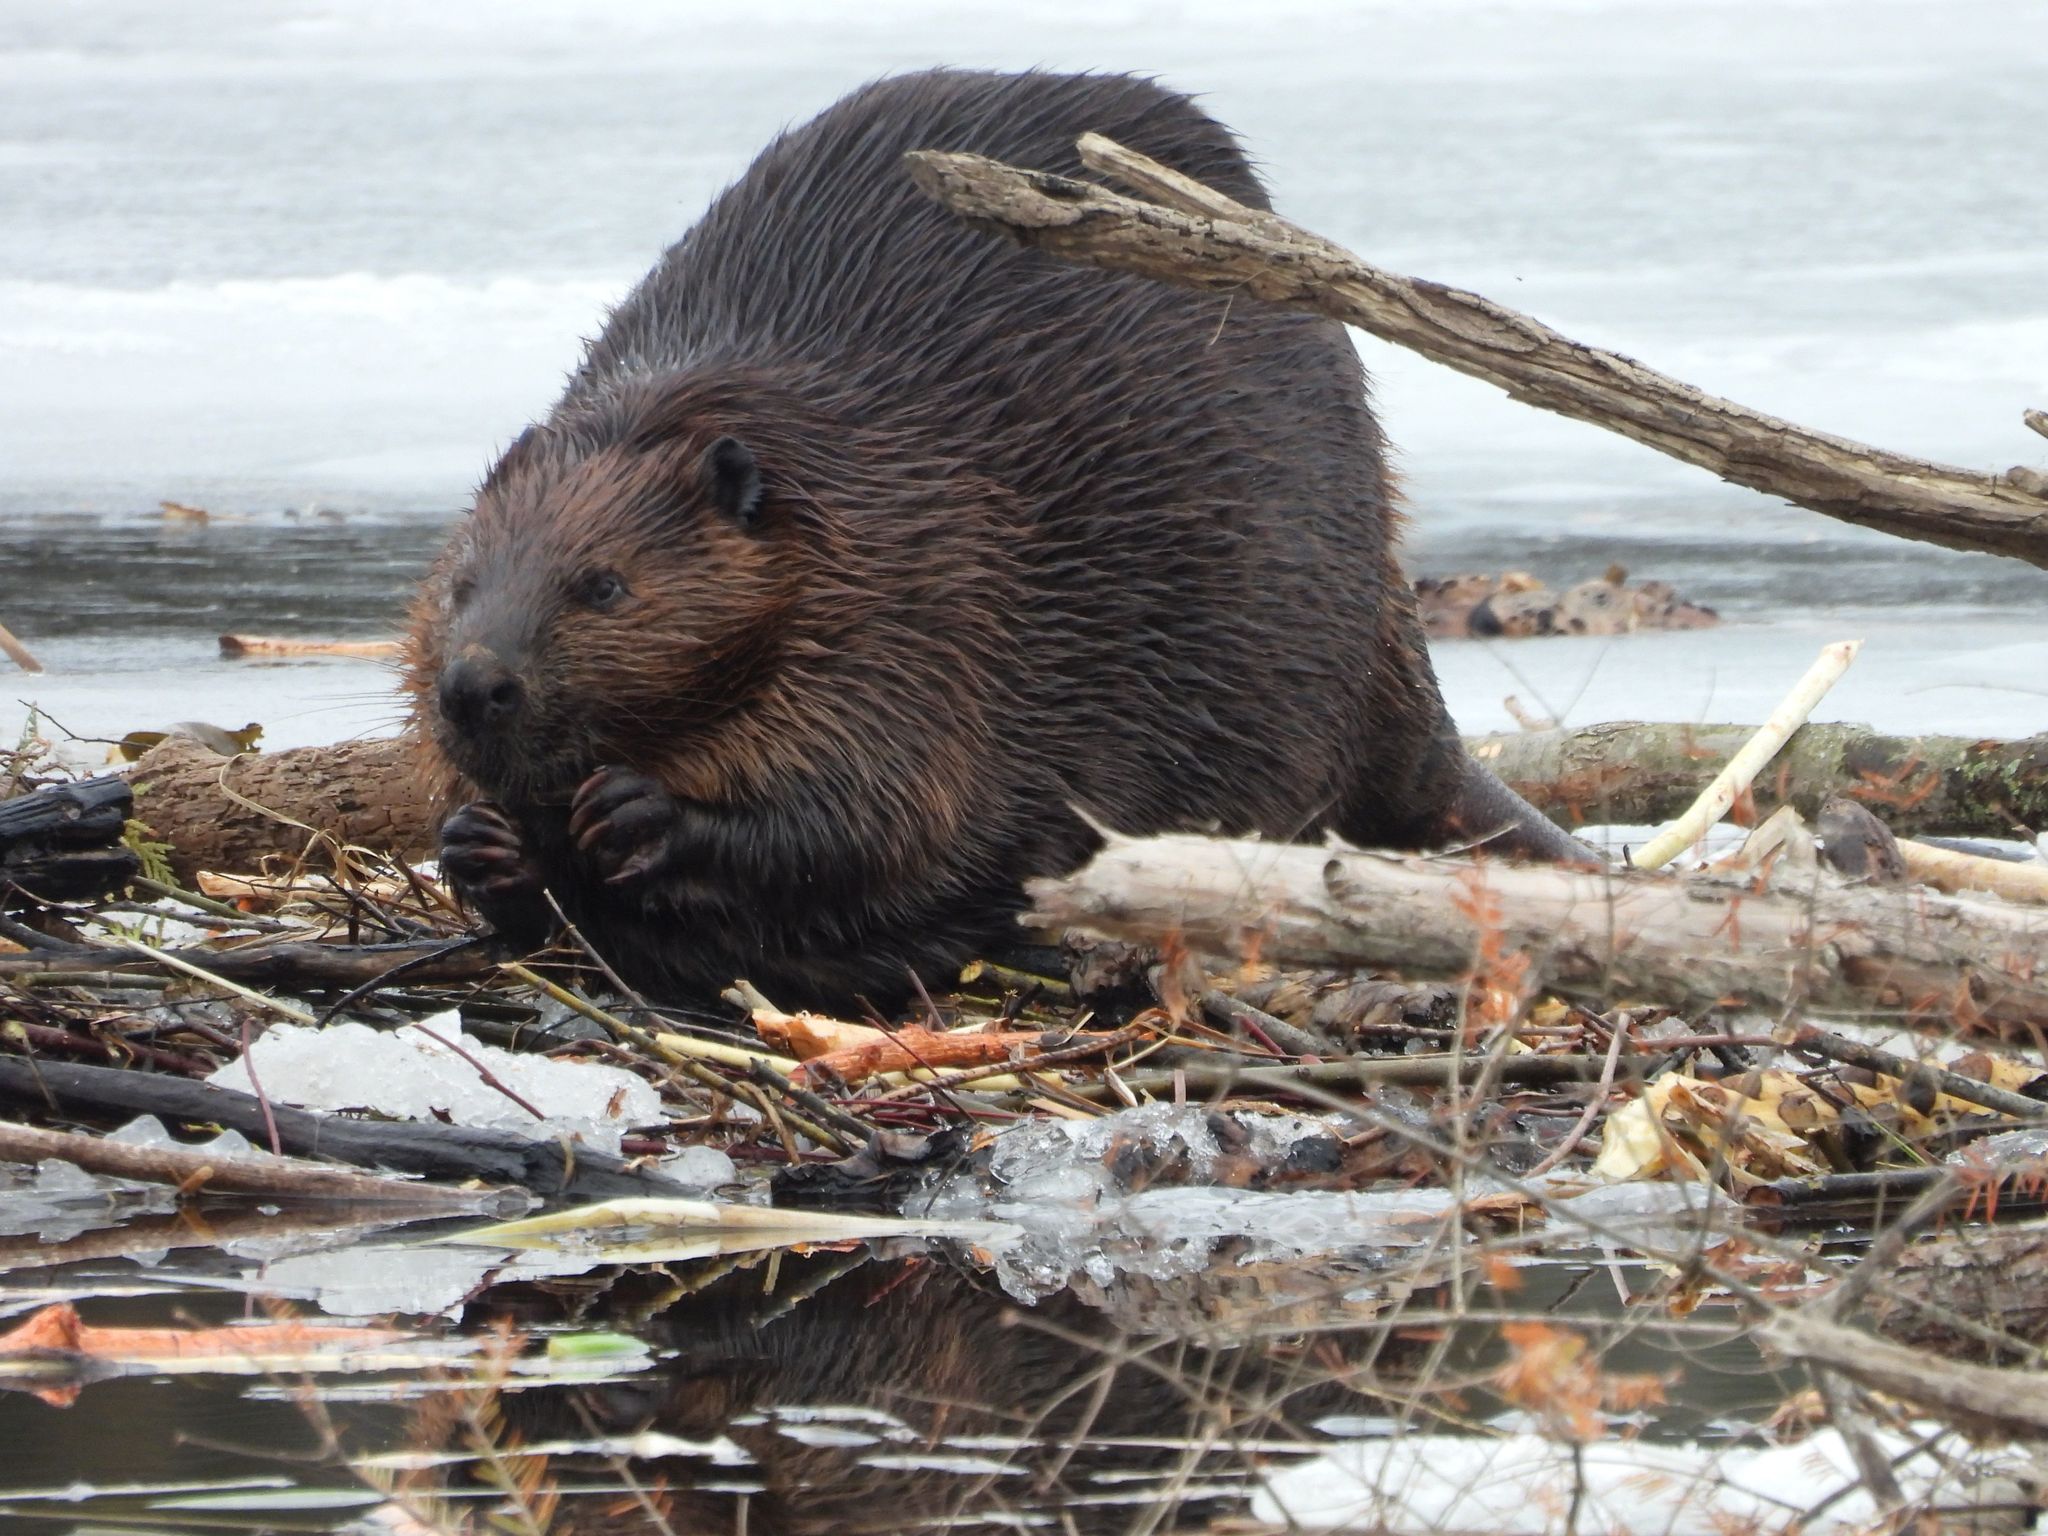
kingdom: Animalia
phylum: Chordata
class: Mammalia
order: Rodentia
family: Castoridae
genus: Castor
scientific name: Castor canadensis
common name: American beaver
